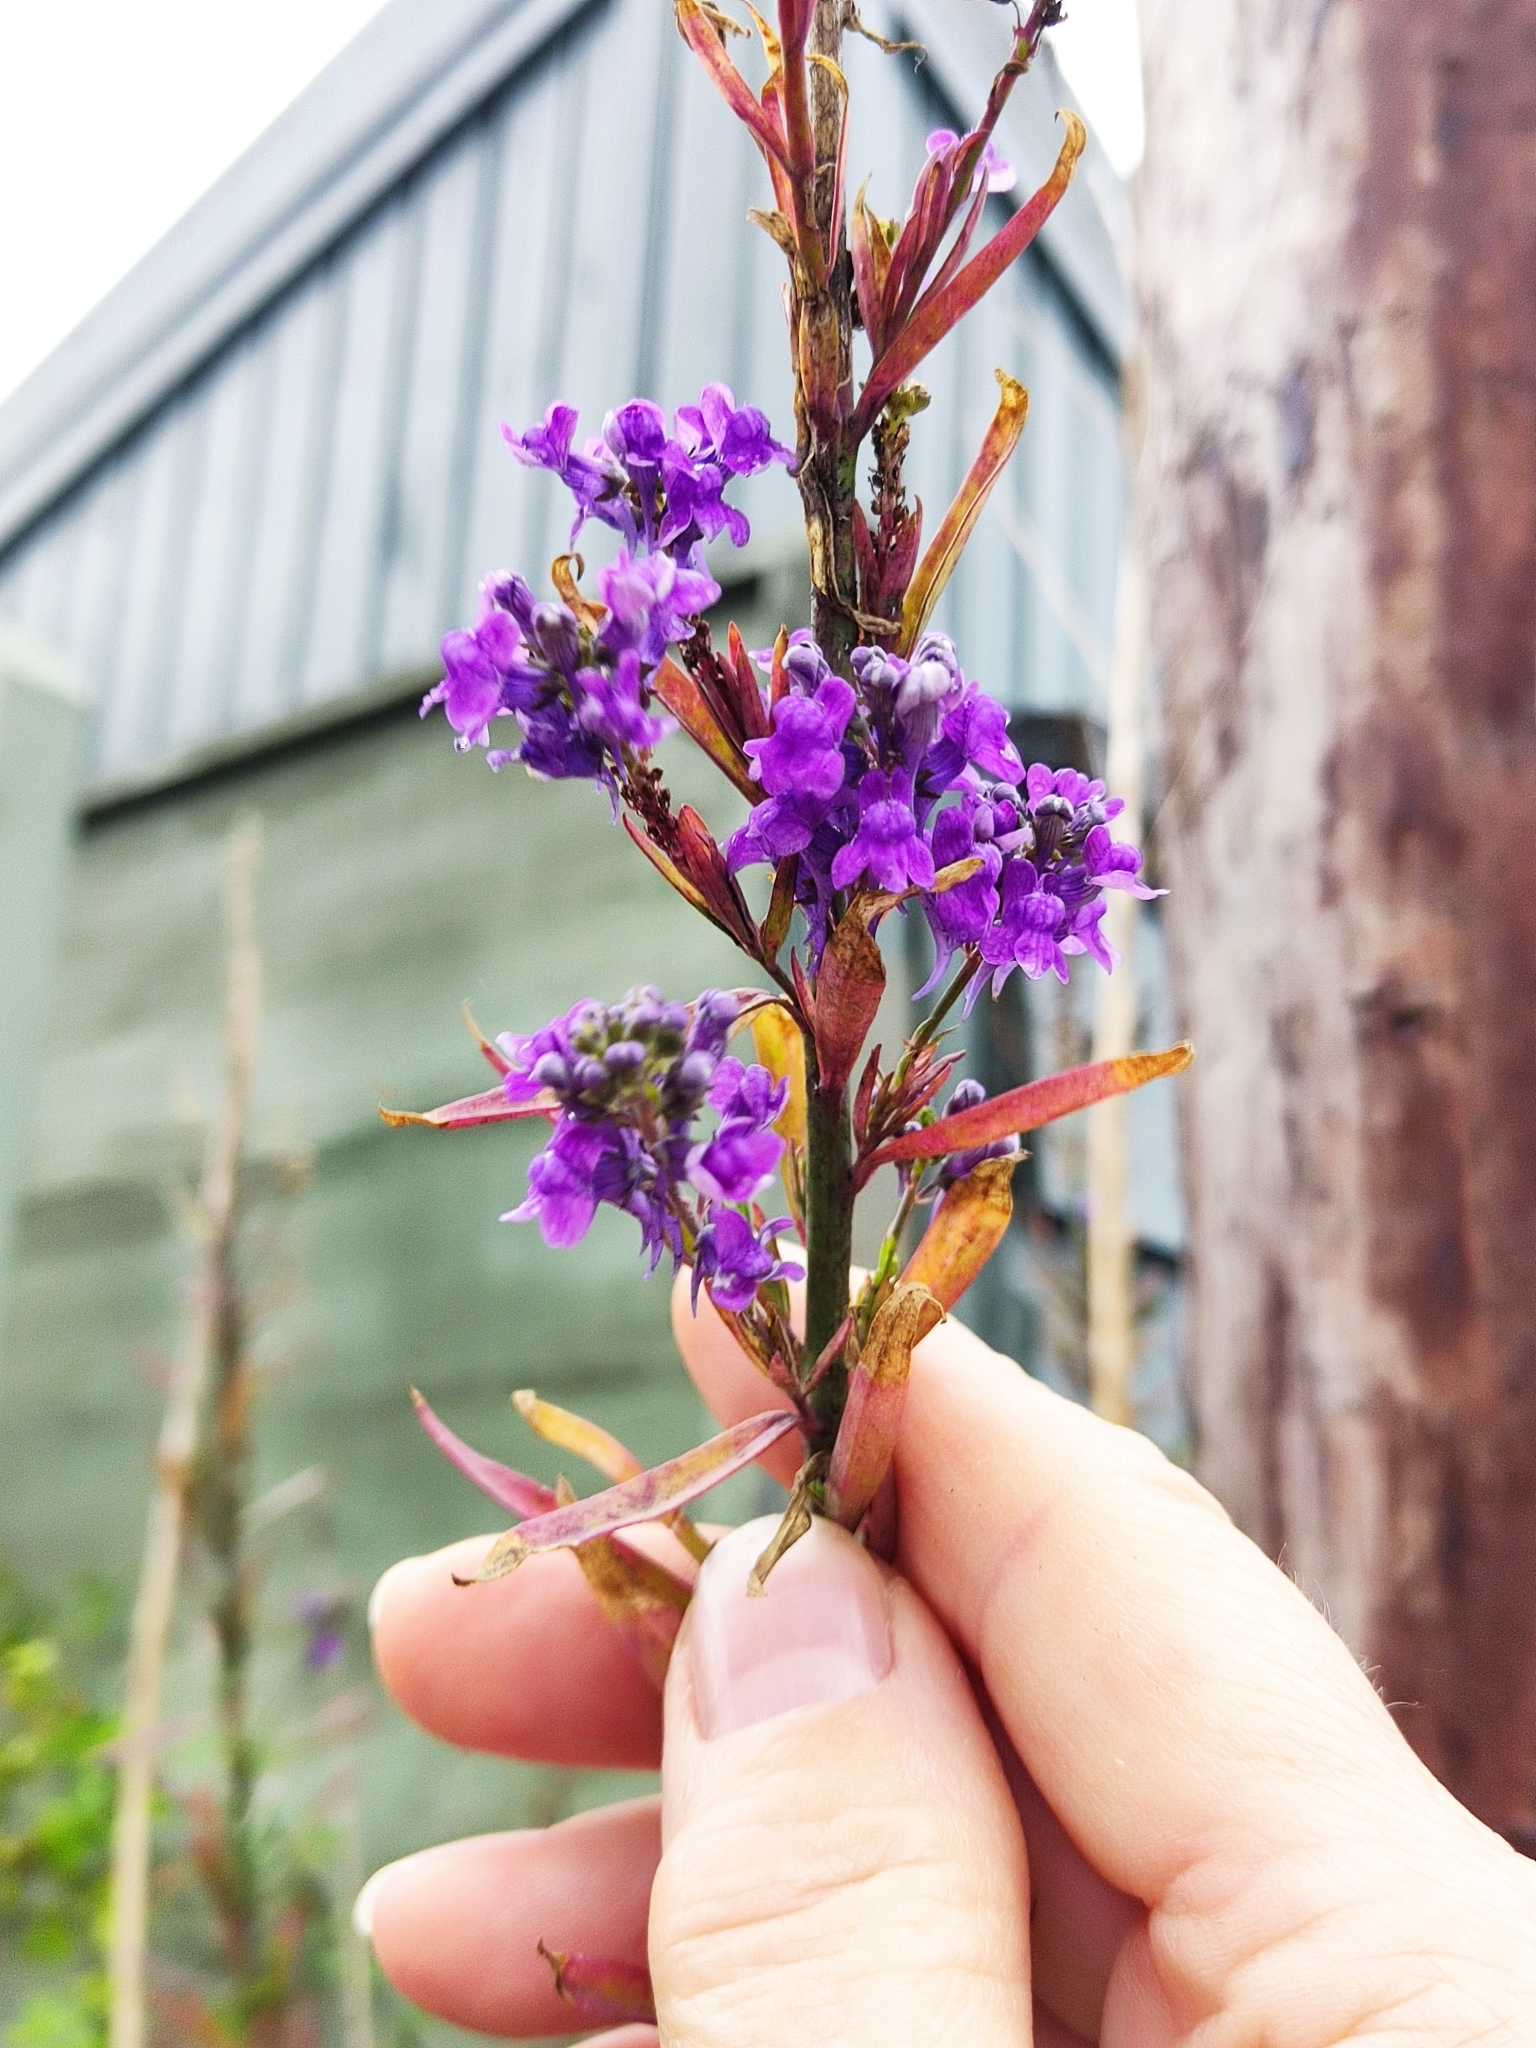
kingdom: Plantae
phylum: Tracheophyta
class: Magnoliopsida
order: Lamiales
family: Plantaginaceae
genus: Linaria
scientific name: Linaria purpurea
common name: Purple toadflax
